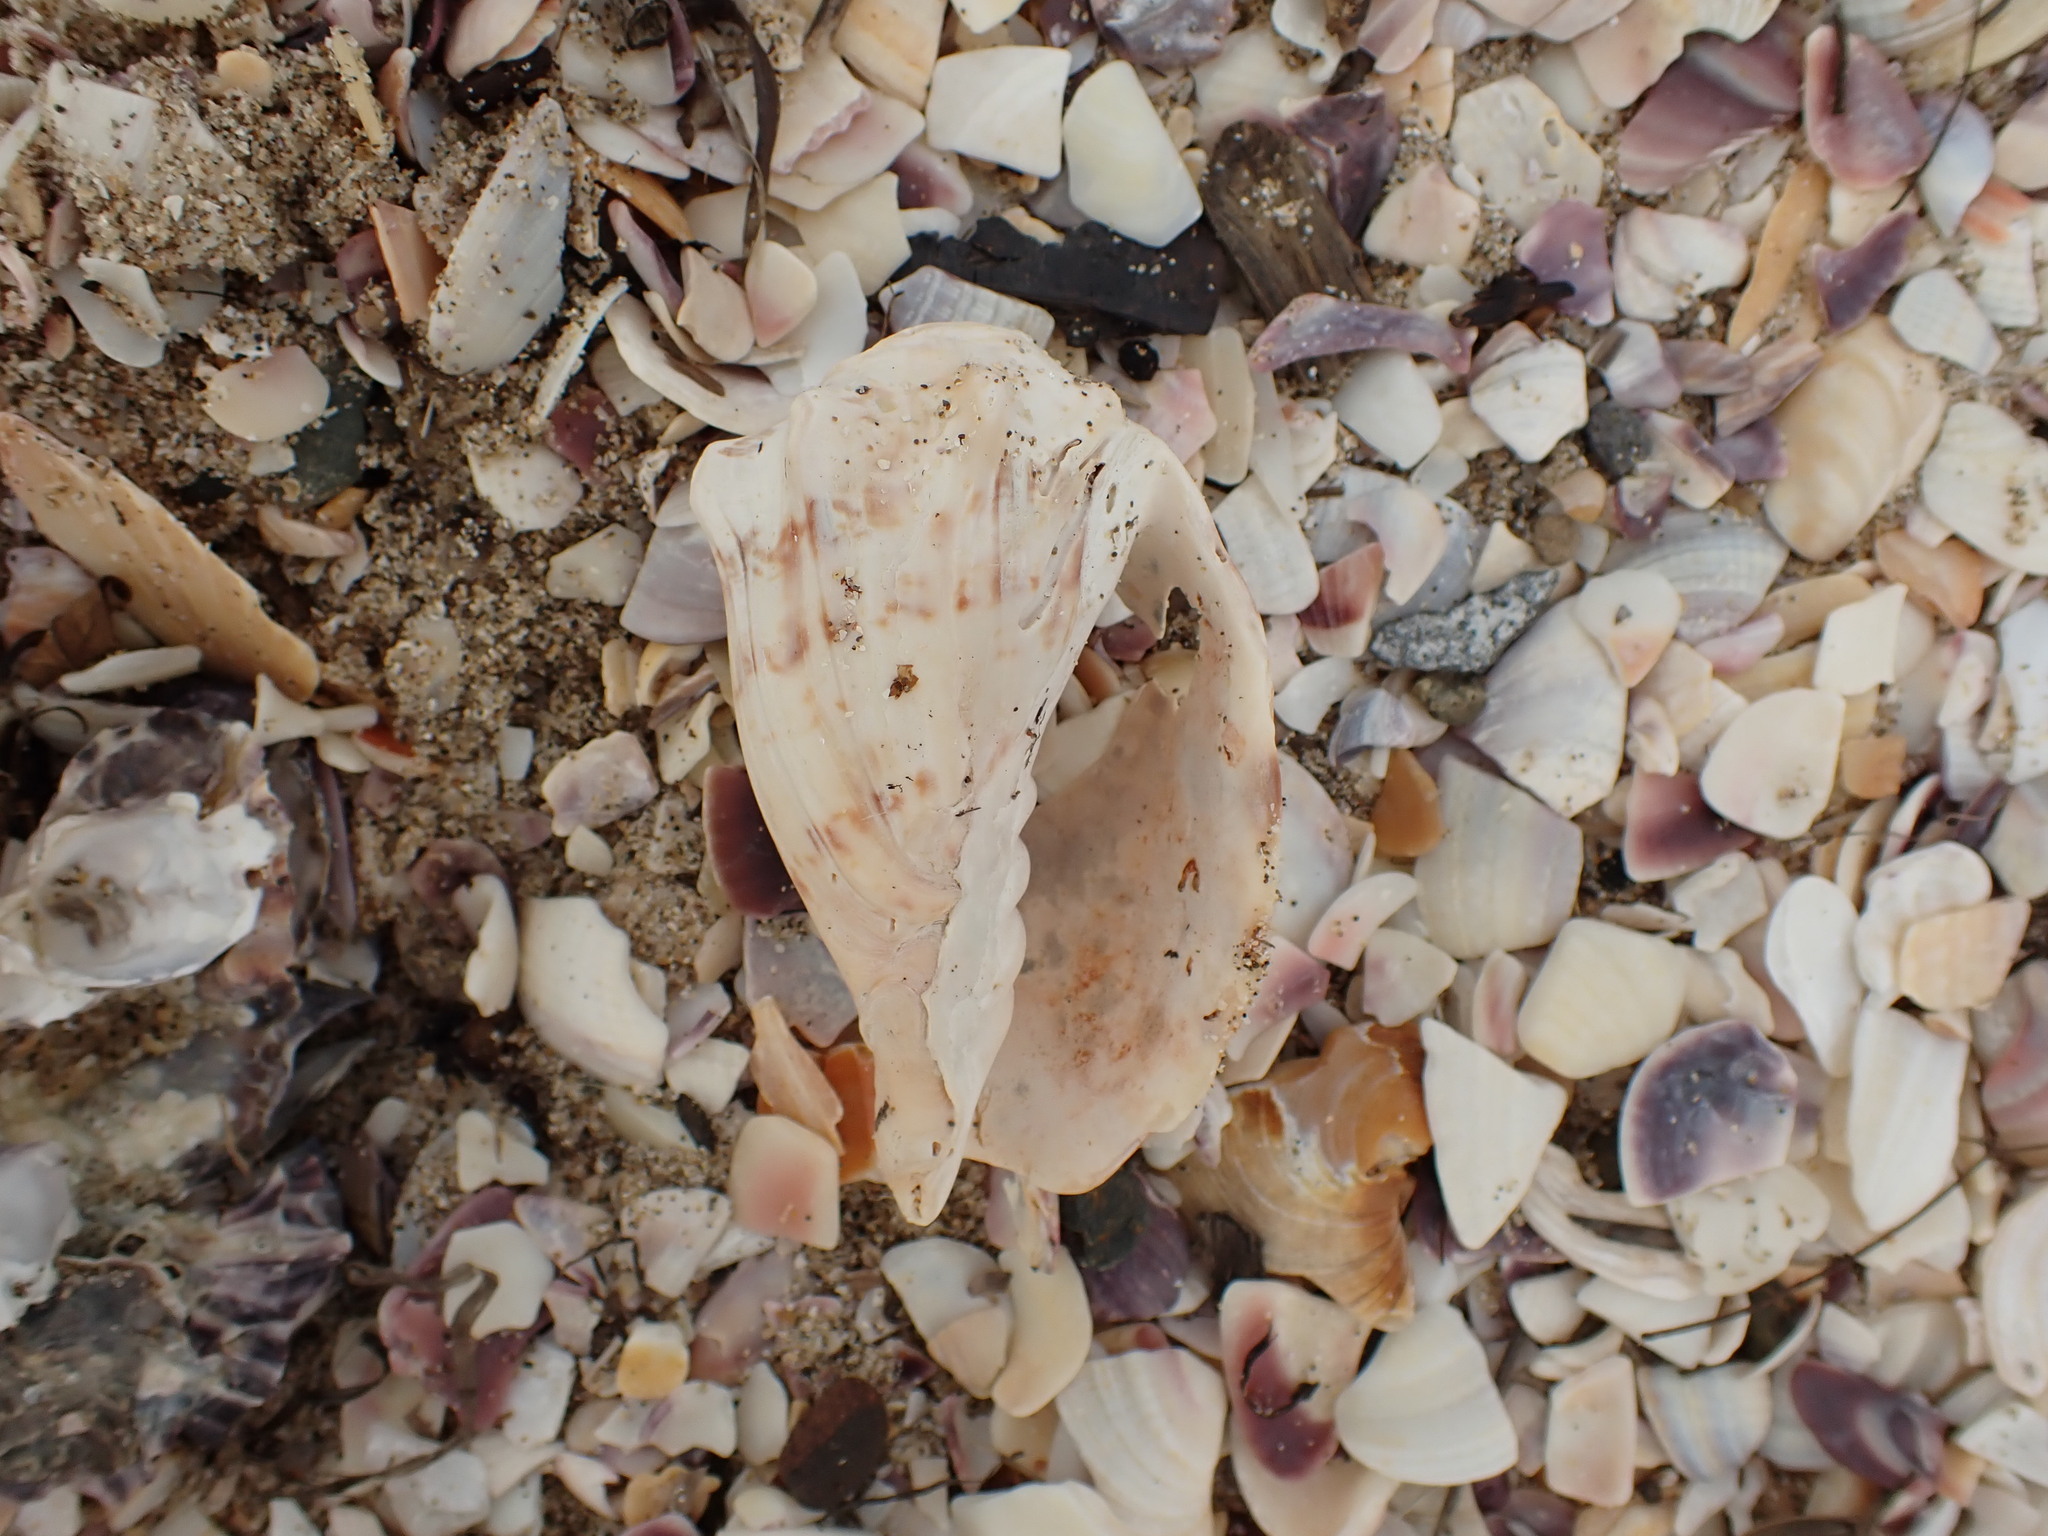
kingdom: Animalia
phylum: Mollusca
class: Gastropoda
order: Neogastropoda
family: Volutidae
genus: Alcithoe
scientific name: Alcithoe arabica
